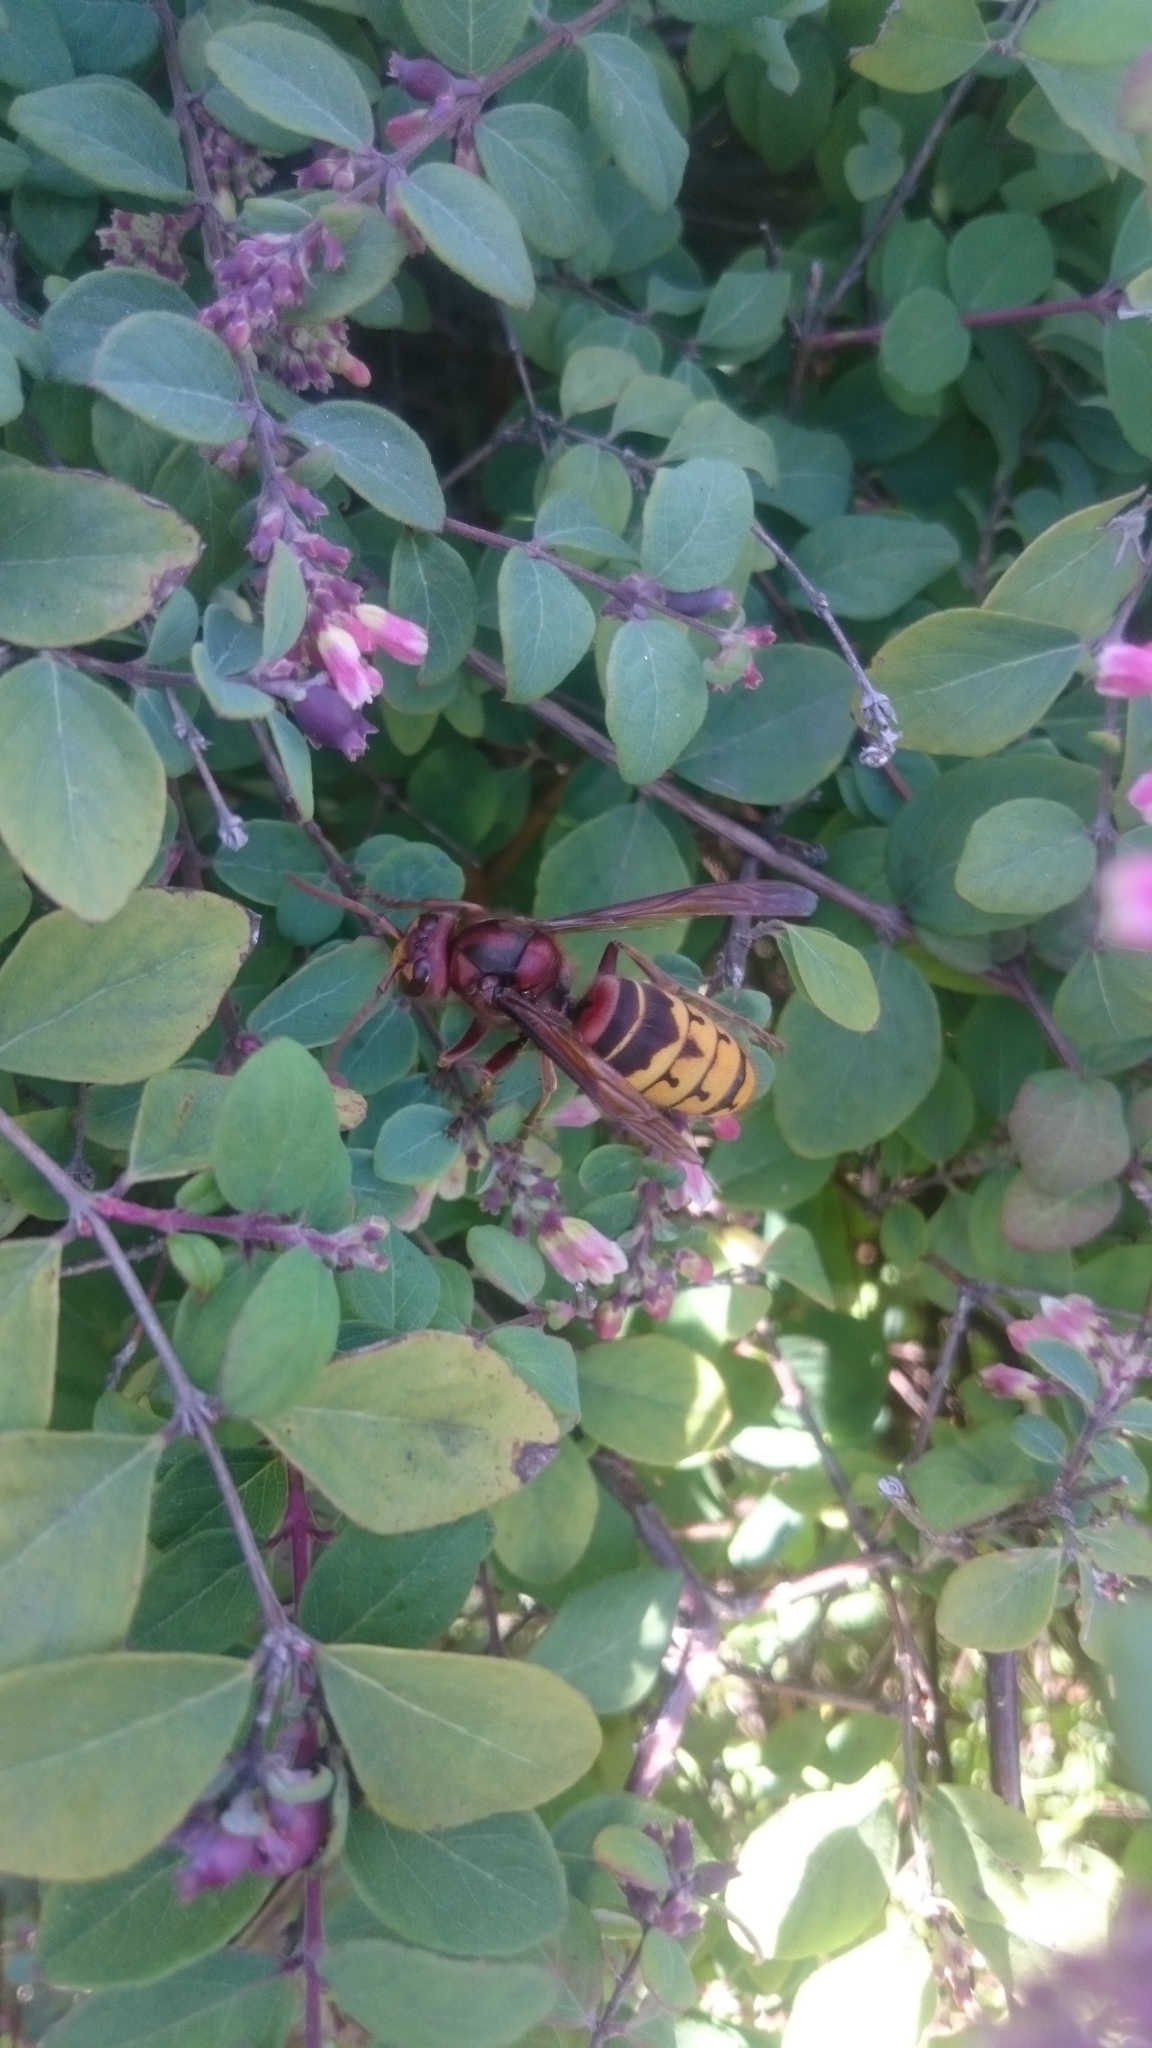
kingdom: Animalia
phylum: Arthropoda
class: Insecta
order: Hymenoptera
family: Vespidae
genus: Vespa
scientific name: Vespa crabro
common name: Hornet
